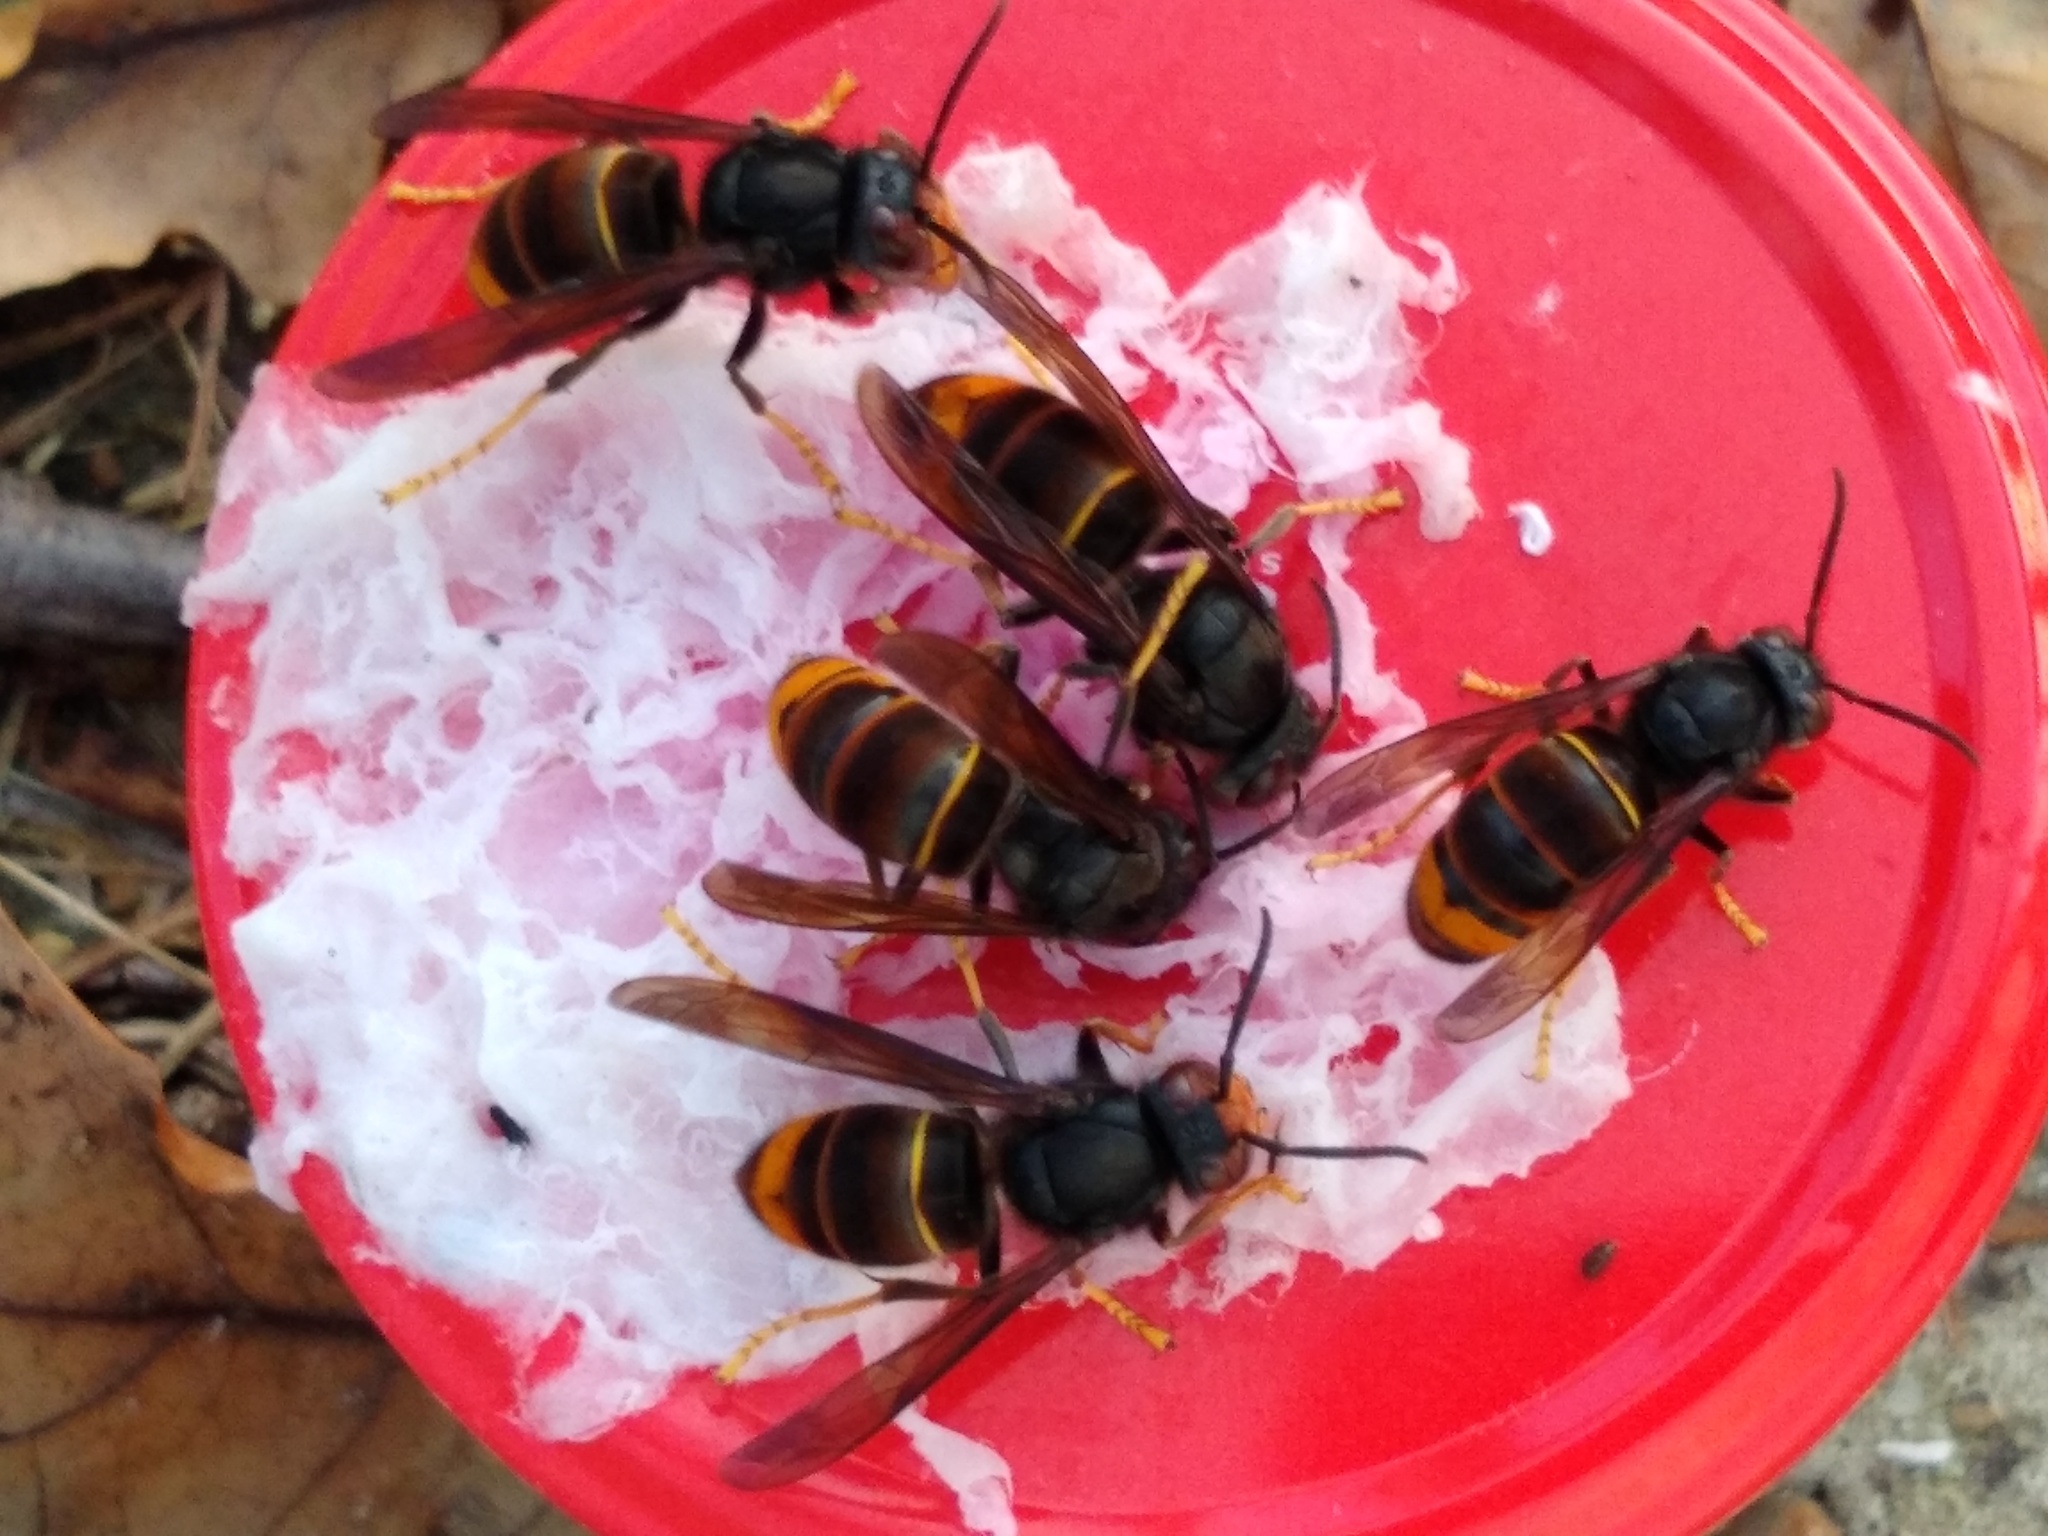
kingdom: Animalia
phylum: Arthropoda
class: Insecta
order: Hymenoptera
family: Vespidae
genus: Vespa
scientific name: Vespa velutina
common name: Asian hornet
